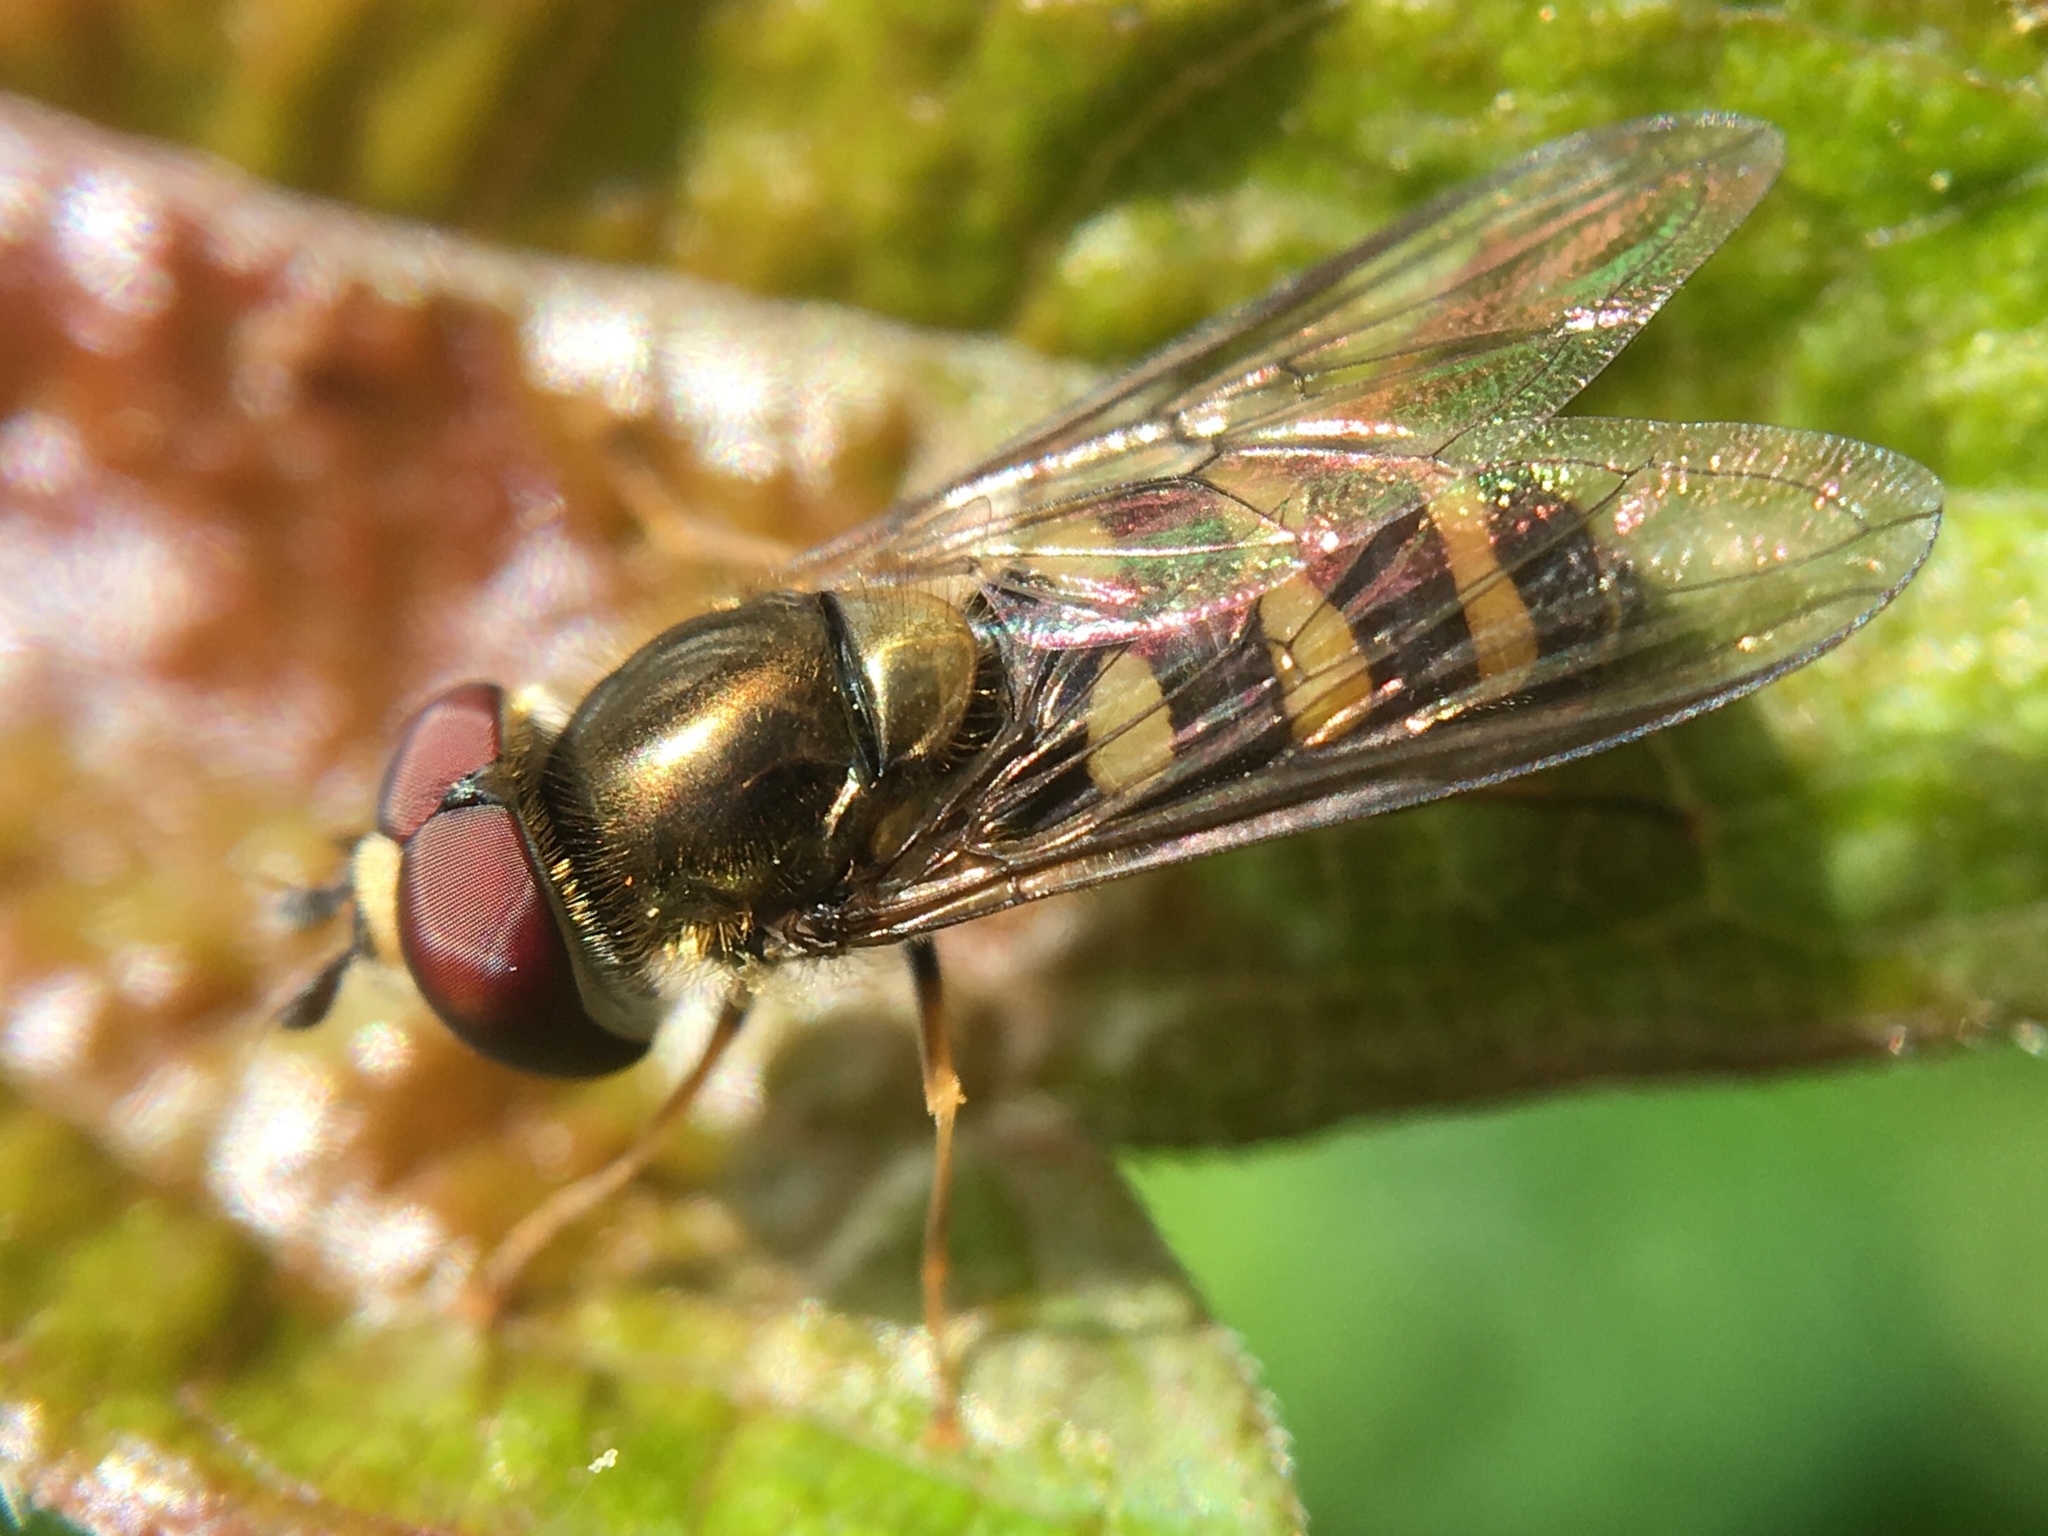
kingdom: Animalia
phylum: Arthropoda
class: Insecta
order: Diptera
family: Syrphidae
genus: Eupeodes
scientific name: Eupeodes
